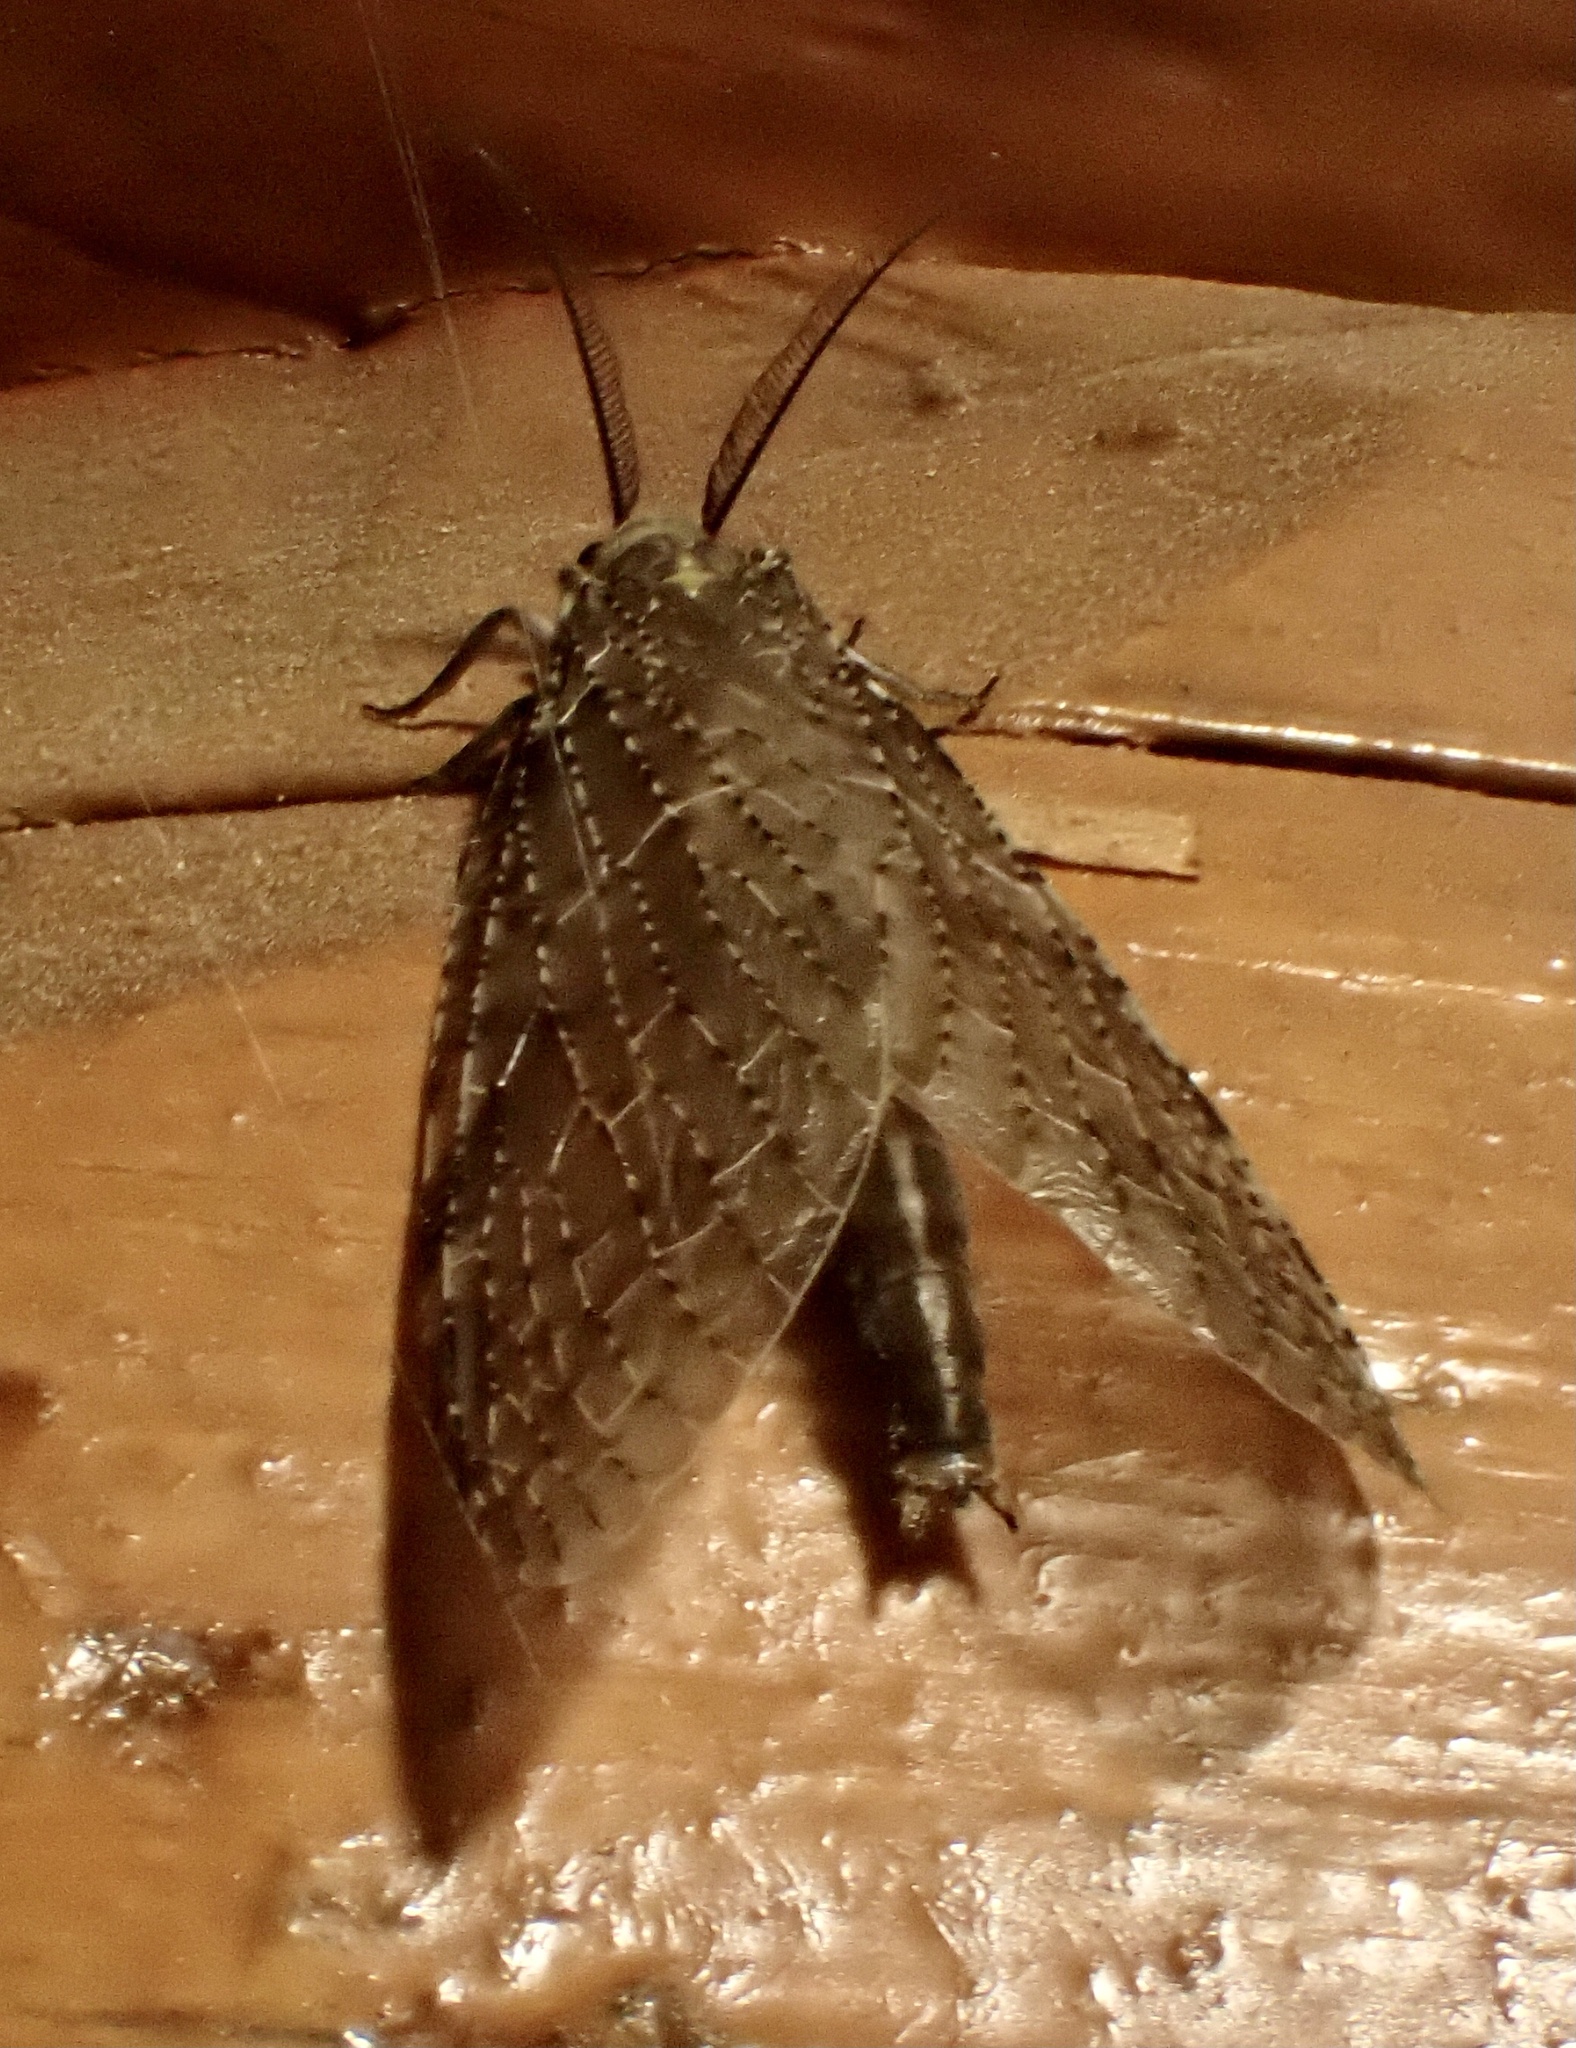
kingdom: Animalia
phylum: Arthropoda
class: Insecta
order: Megaloptera
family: Corydalidae
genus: Chauliodes
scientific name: Chauliodes pectinicornis
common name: Summer fishfly
